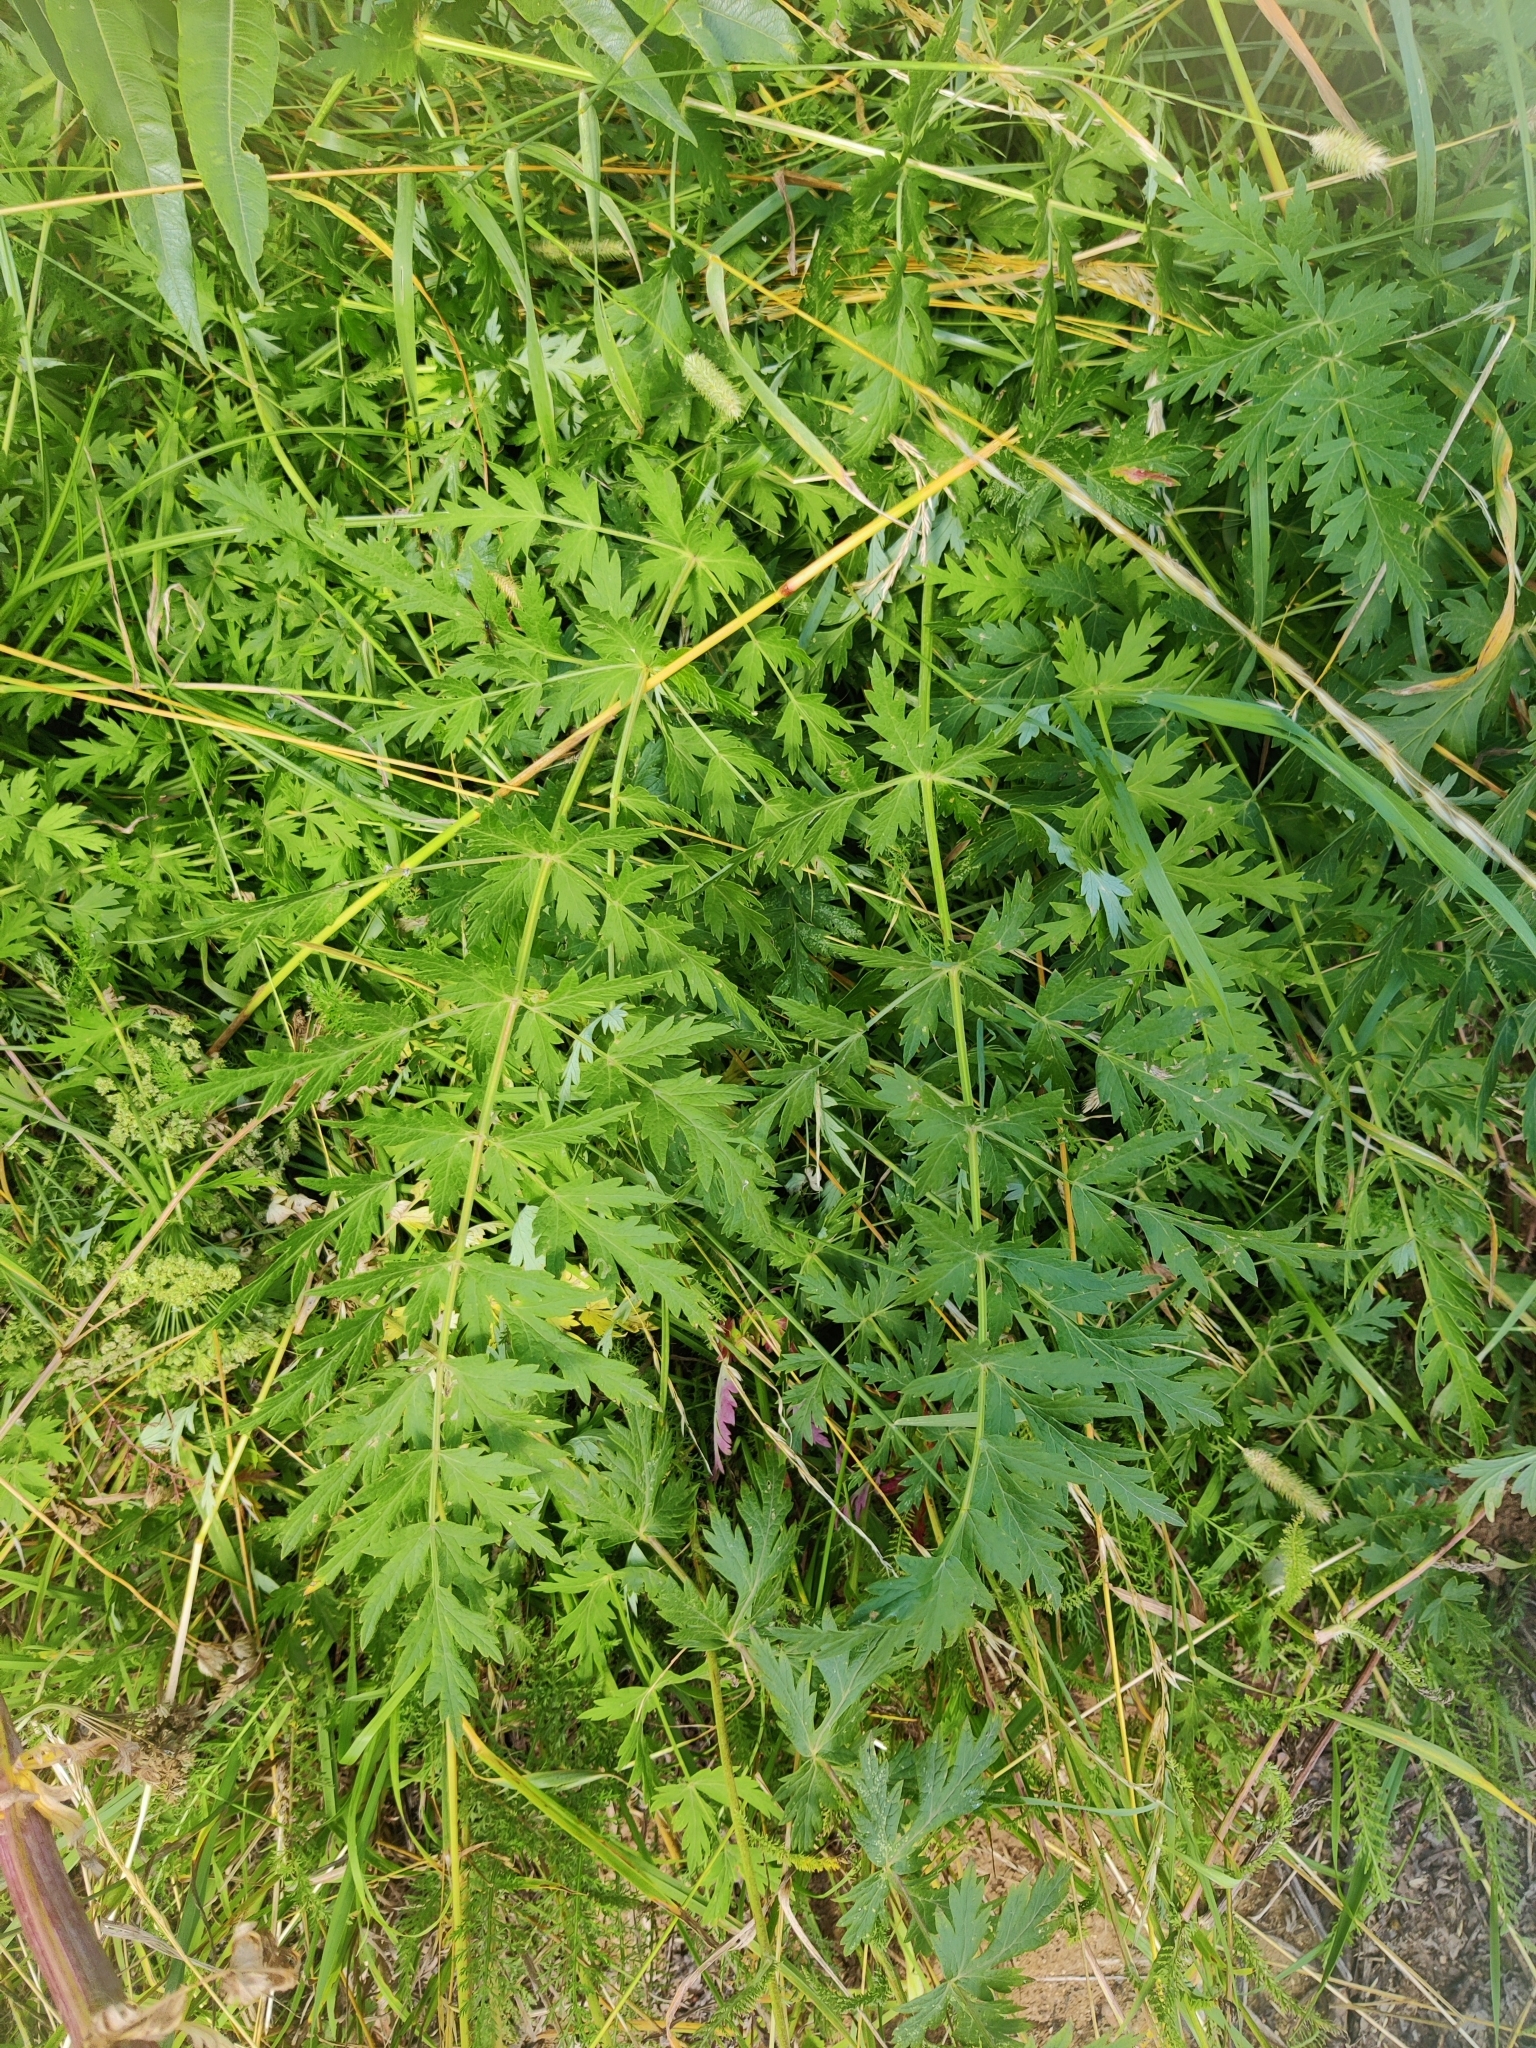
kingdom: Plantae
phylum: Tracheophyta
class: Magnoliopsida
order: Apiales
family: Apiaceae
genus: Seseli
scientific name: Seseli libanotis
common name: Mooncarrot
